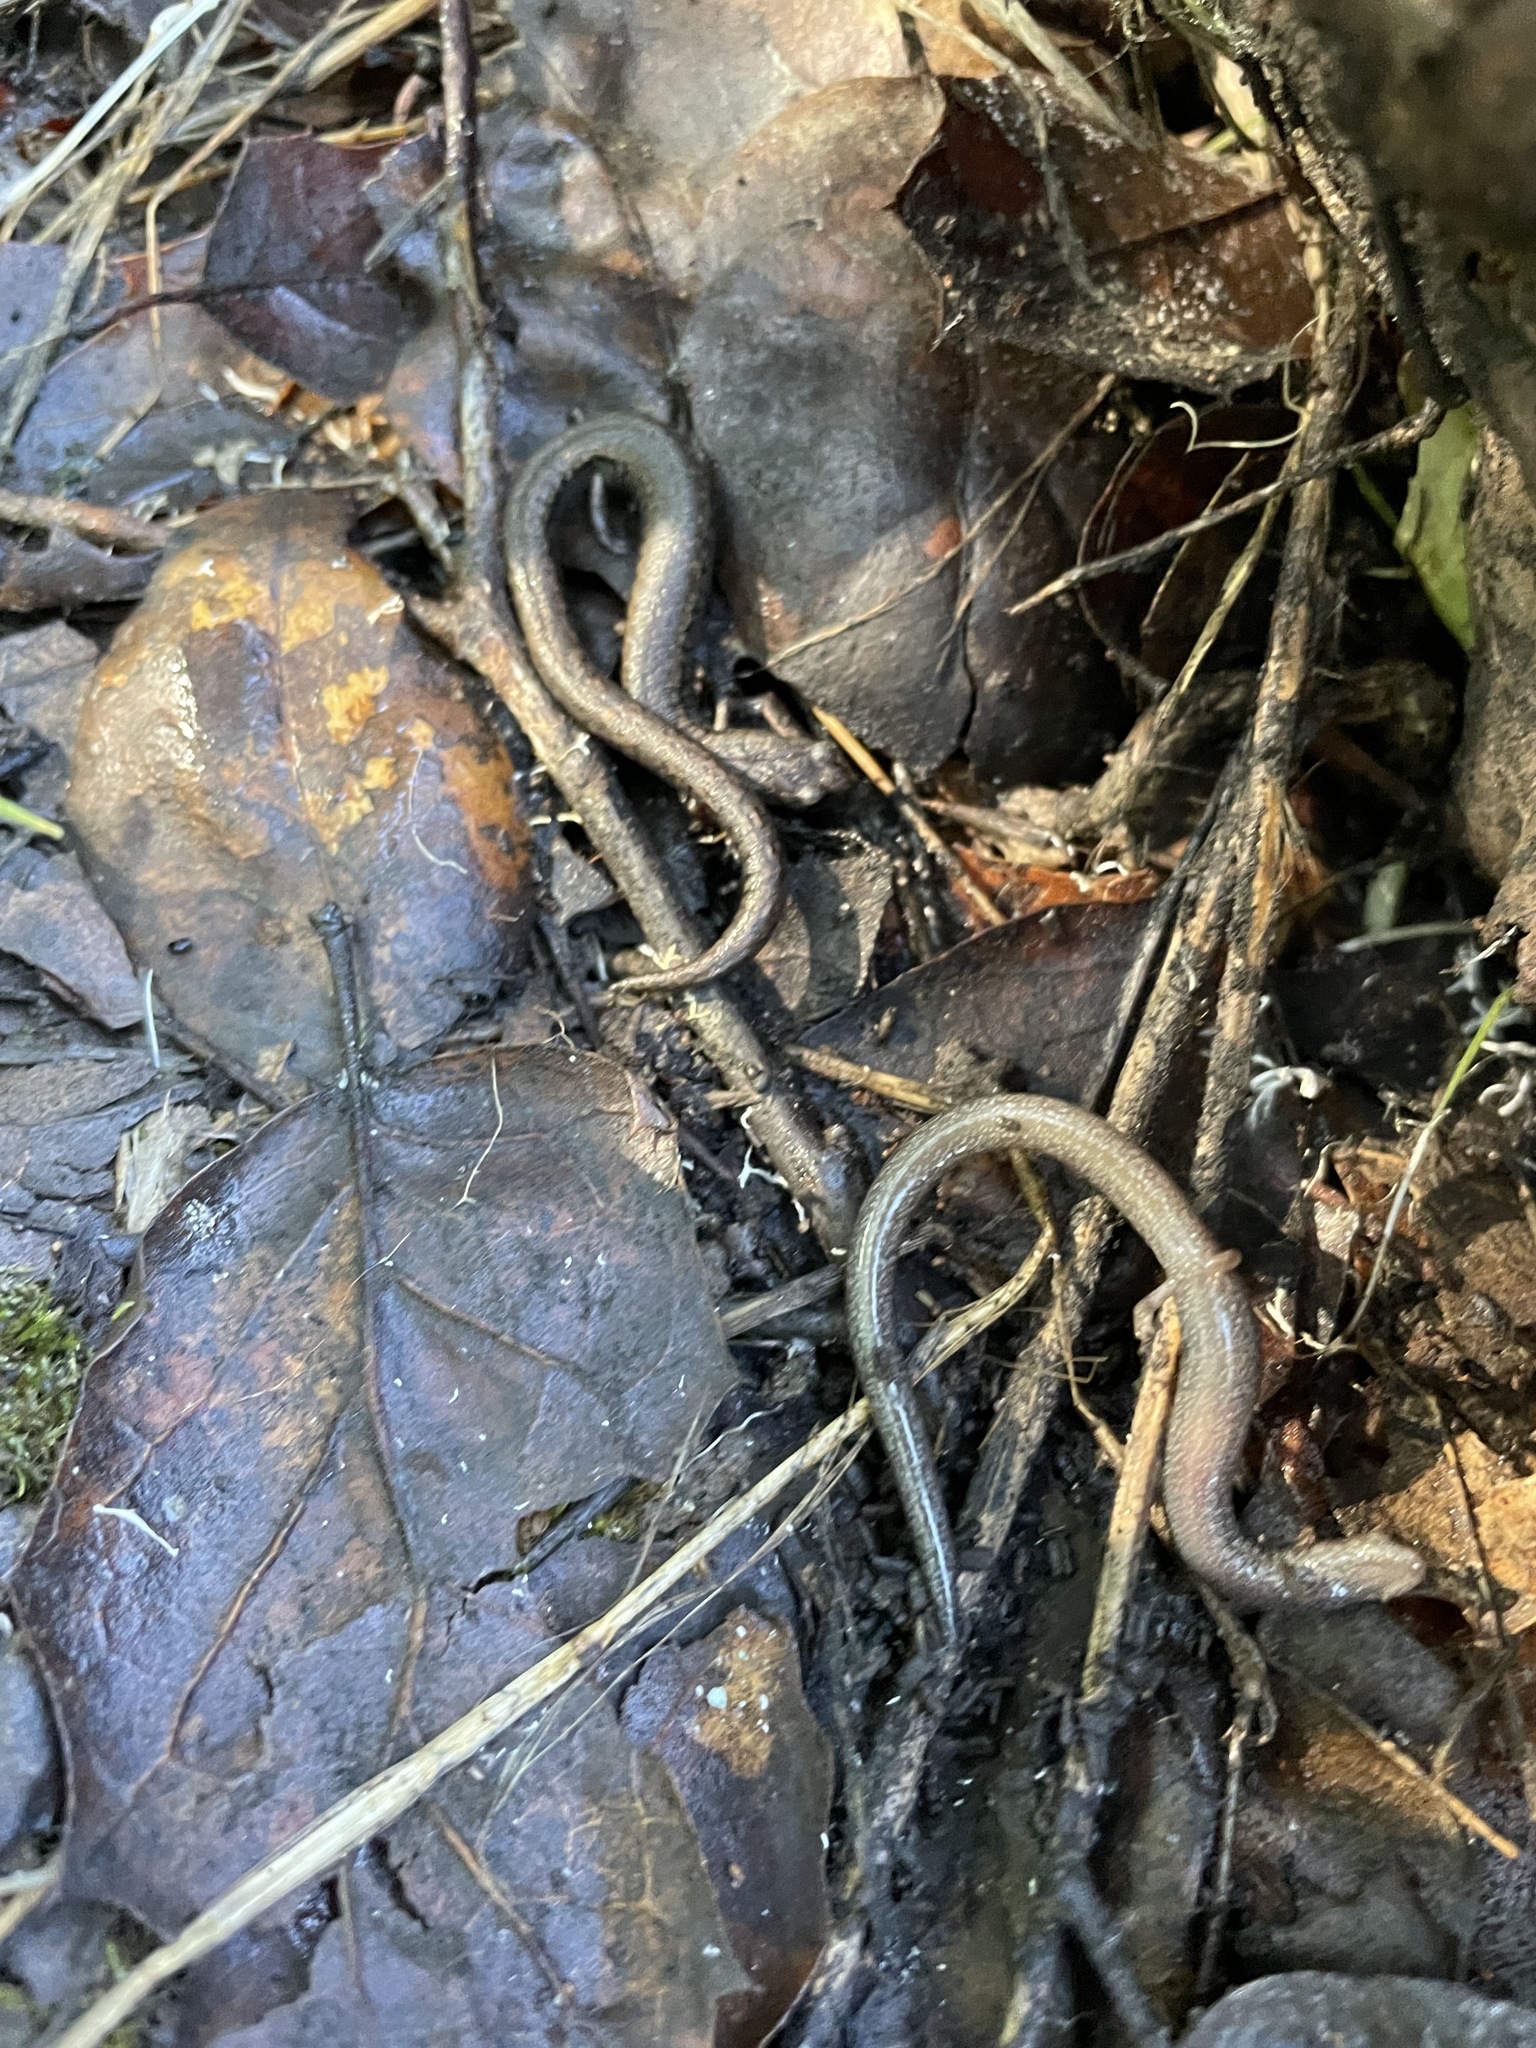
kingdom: Animalia
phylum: Chordata
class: Amphibia
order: Caudata
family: Plethodontidae
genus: Batrachoseps
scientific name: Batrachoseps attenuatus
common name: California slender salamander
